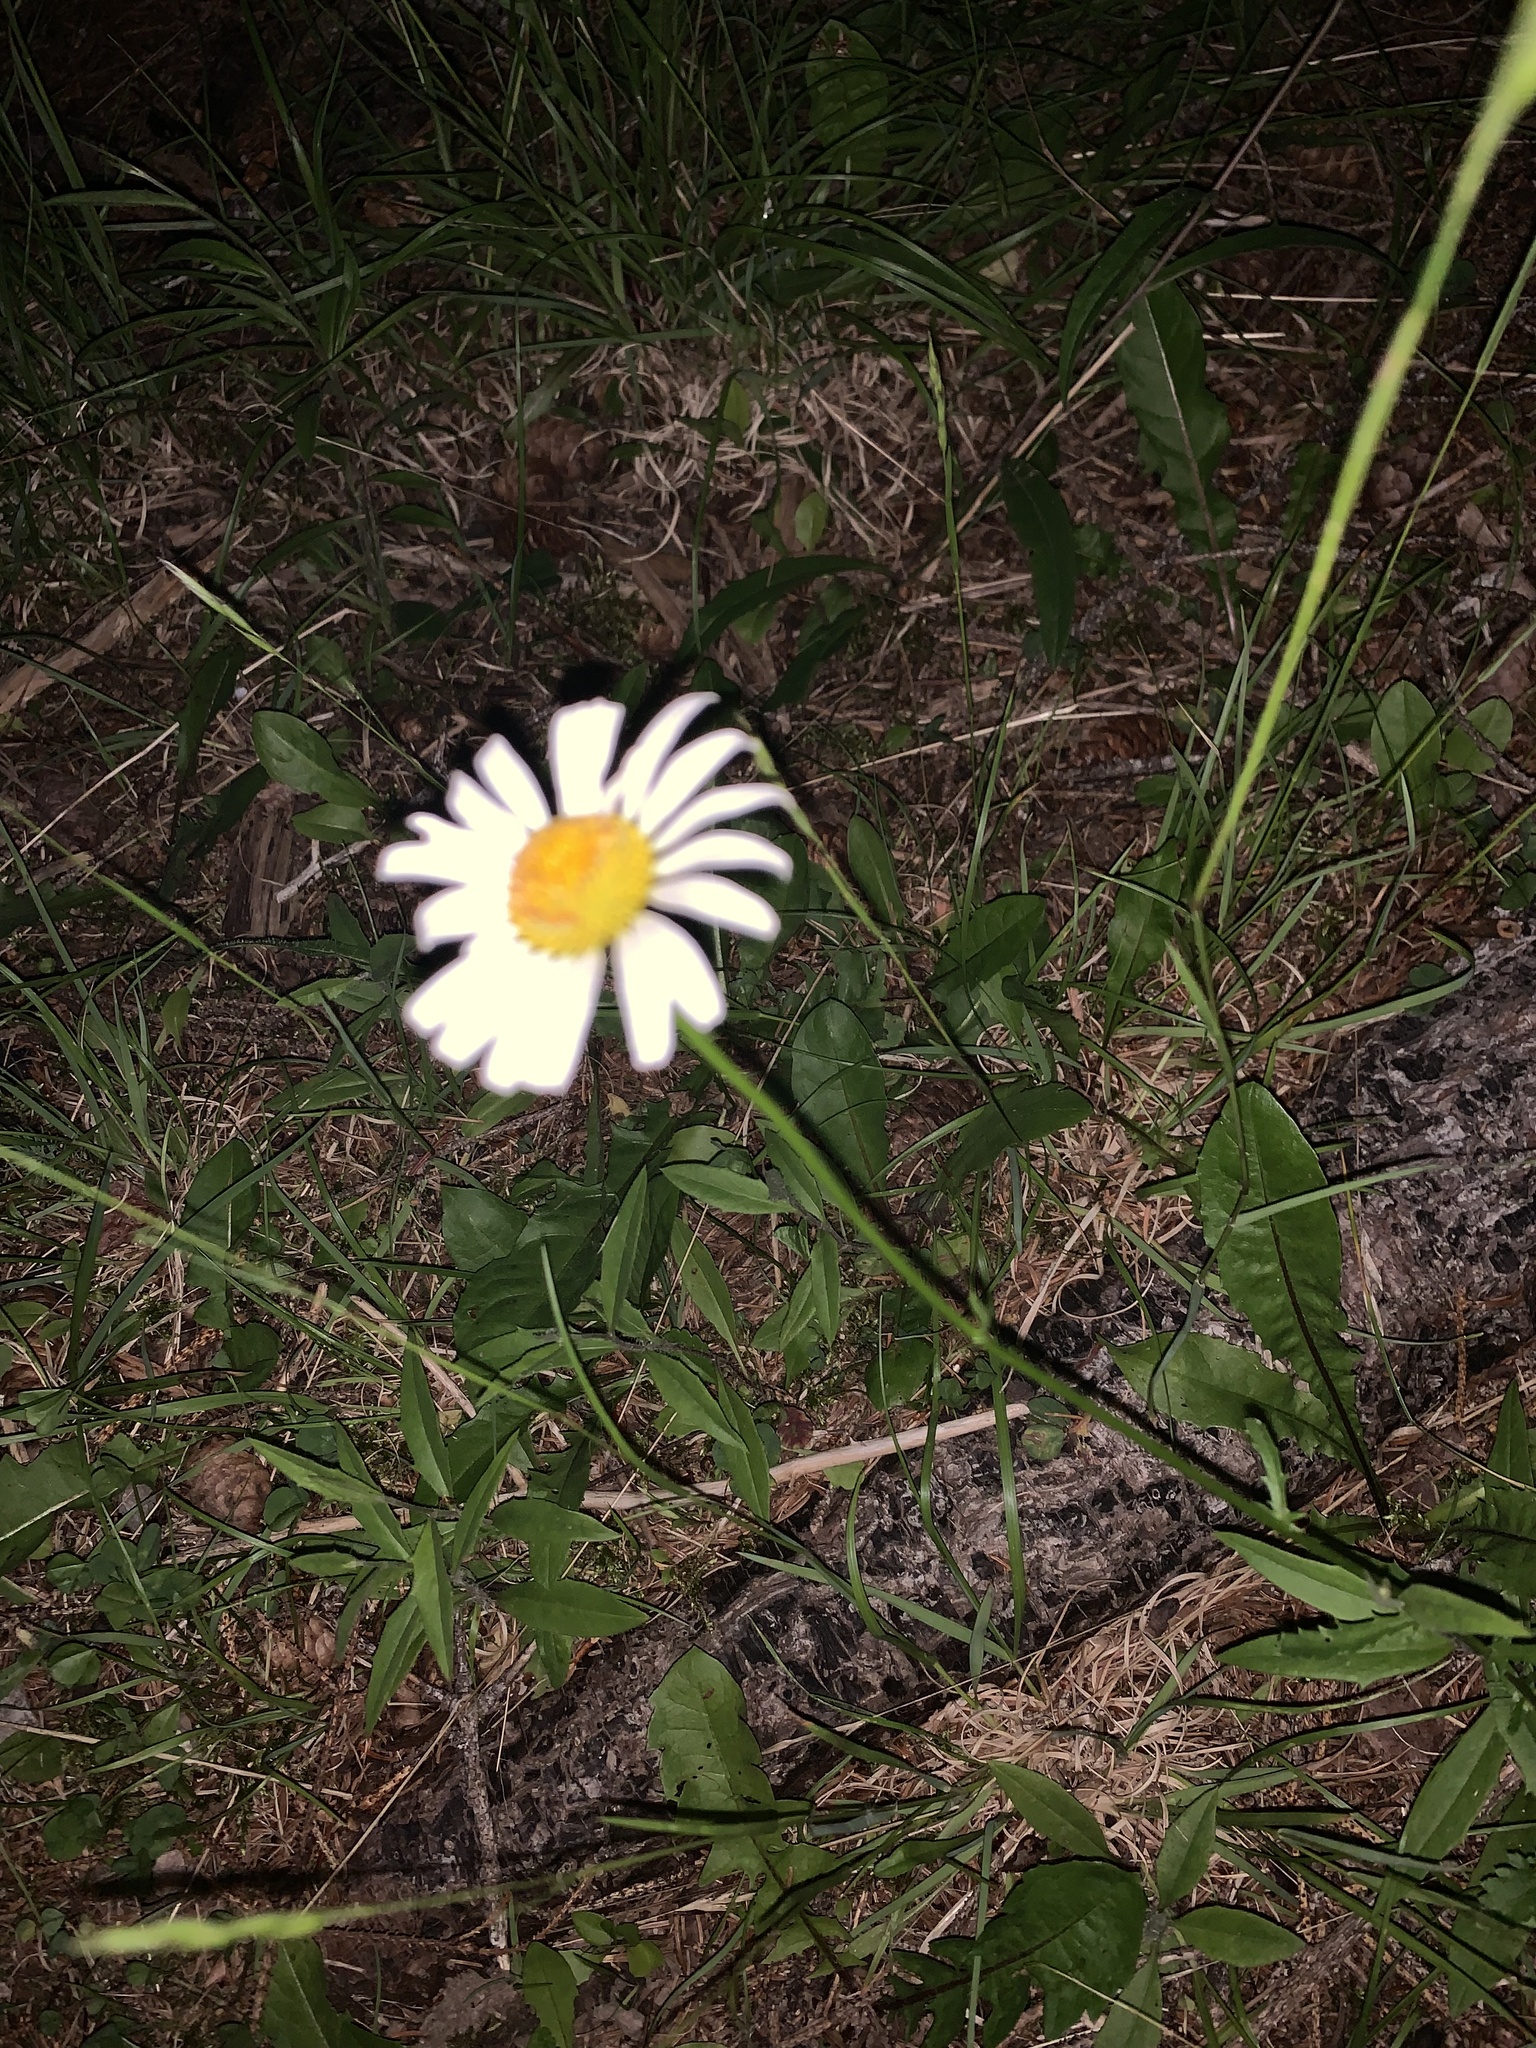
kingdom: Plantae
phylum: Tracheophyta
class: Magnoliopsida
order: Asterales
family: Asteraceae
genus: Leucanthemum
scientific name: Leucanthemum vulgare
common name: Oxeye daisy
